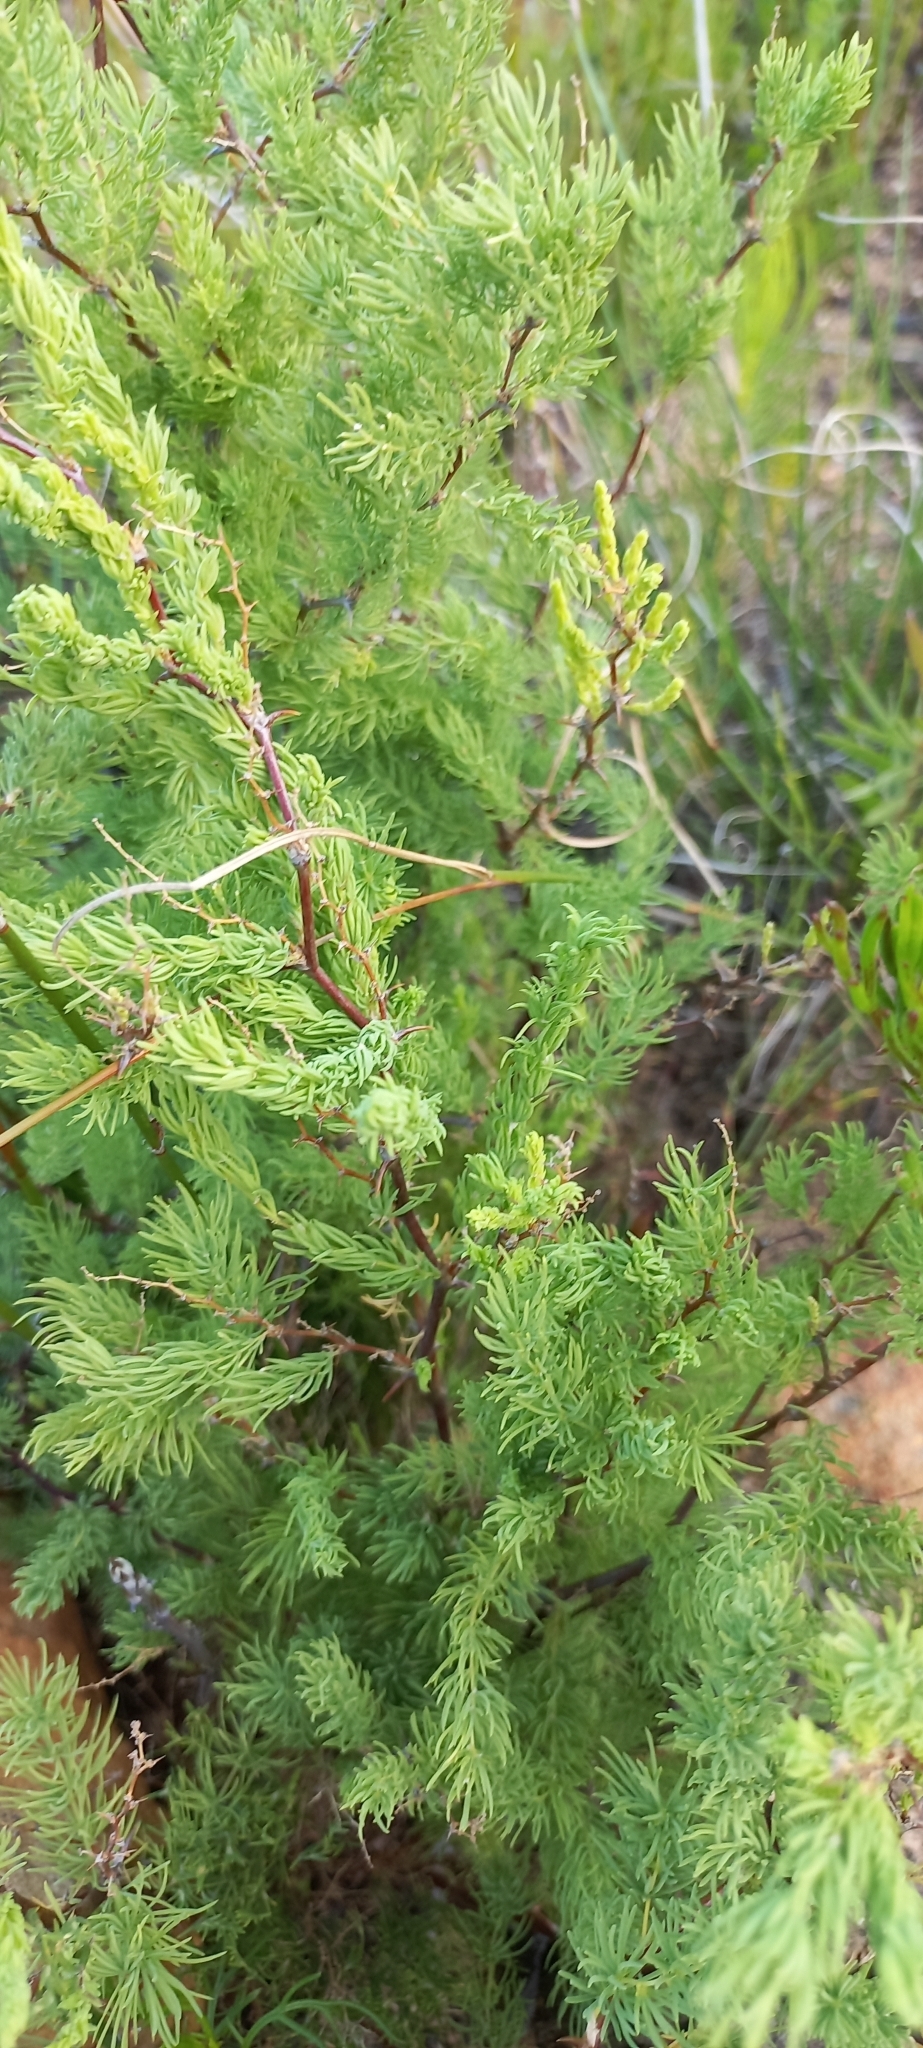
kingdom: Plantae
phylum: Tracheophyta
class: Liliopsida
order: Asparagales
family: Asparagaceae
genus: Asparagus
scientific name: Asparagus rubicundus
